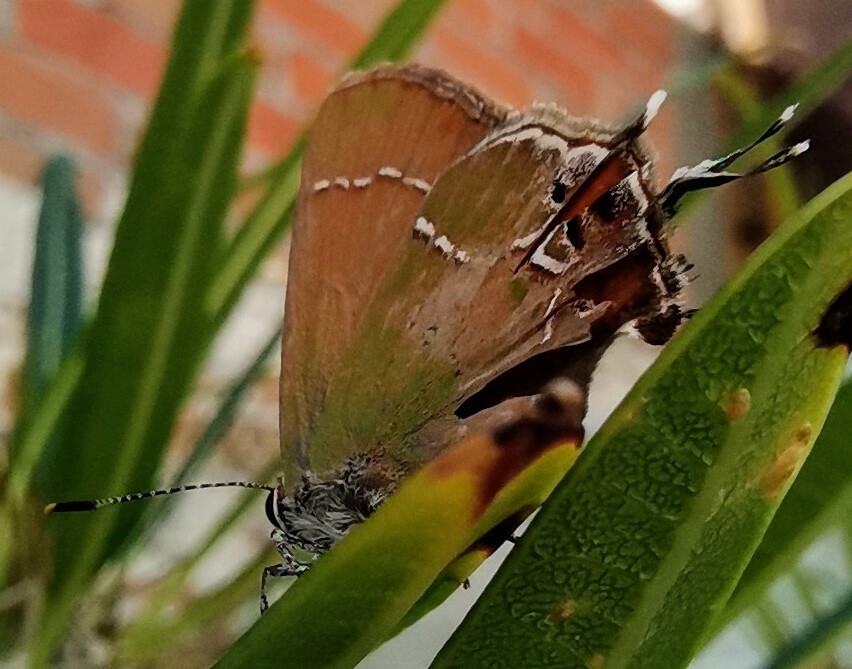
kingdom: Animalia
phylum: Arthropoda
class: Insecta
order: Lepidoptera
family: Lycaenidae
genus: Xamia
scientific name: Xamia xami
